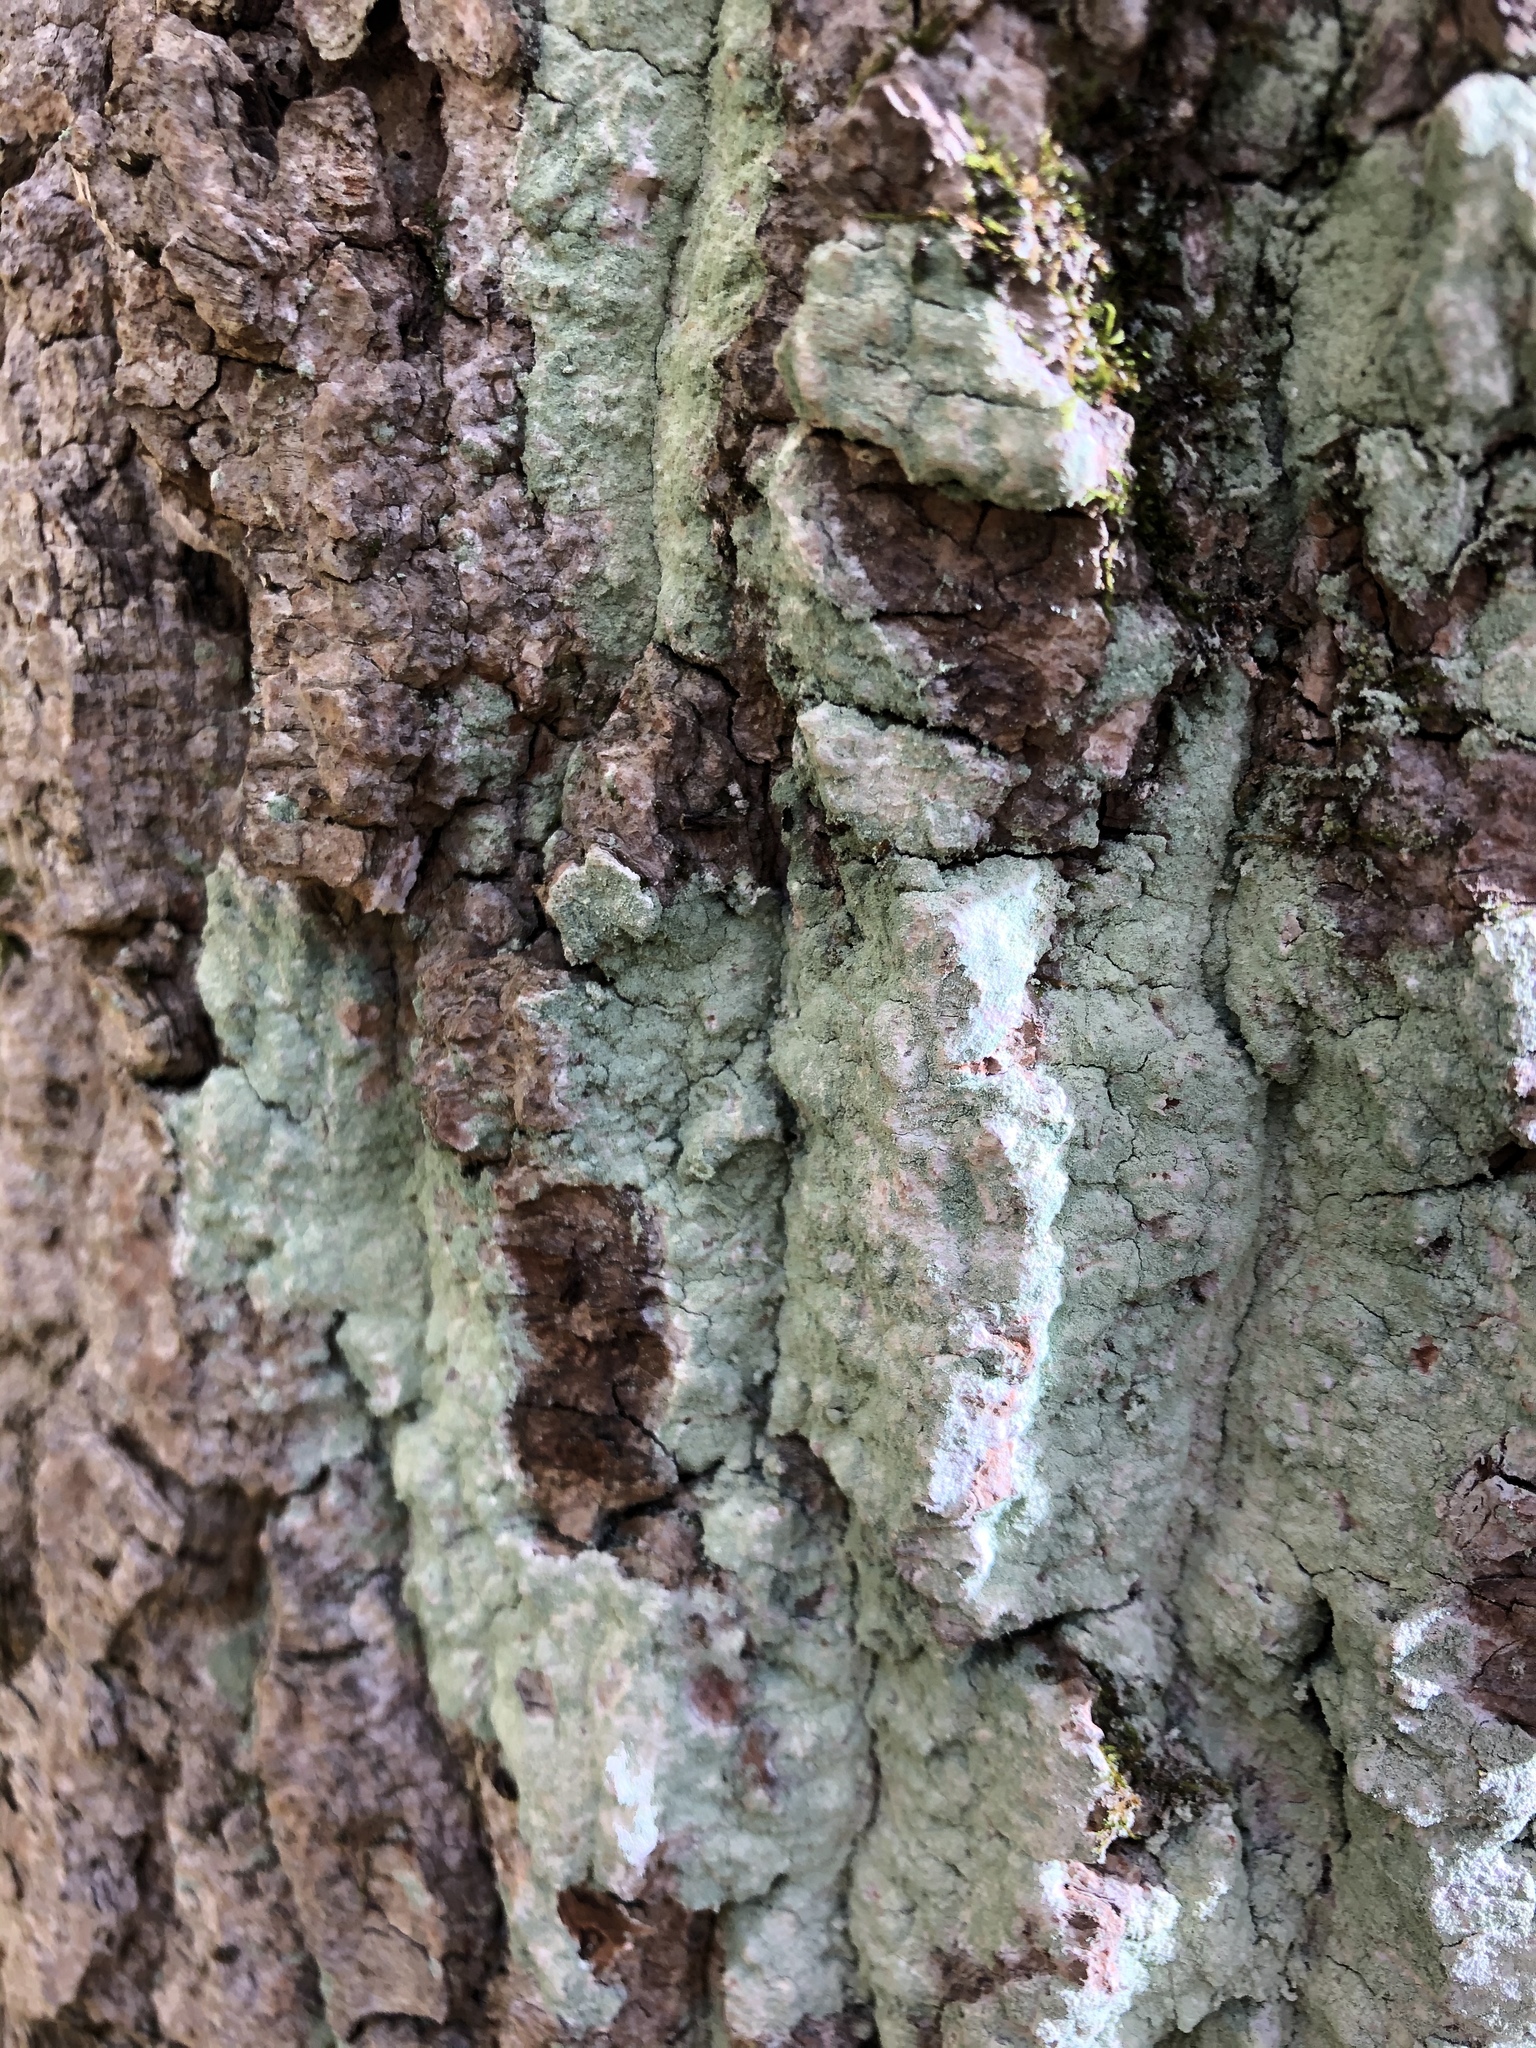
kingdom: Fungi
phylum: Ascomycota
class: Lecanoromycetes
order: Pertusariales
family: Pertusariaceae
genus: Verseghya
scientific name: Verseghya thysanophora
